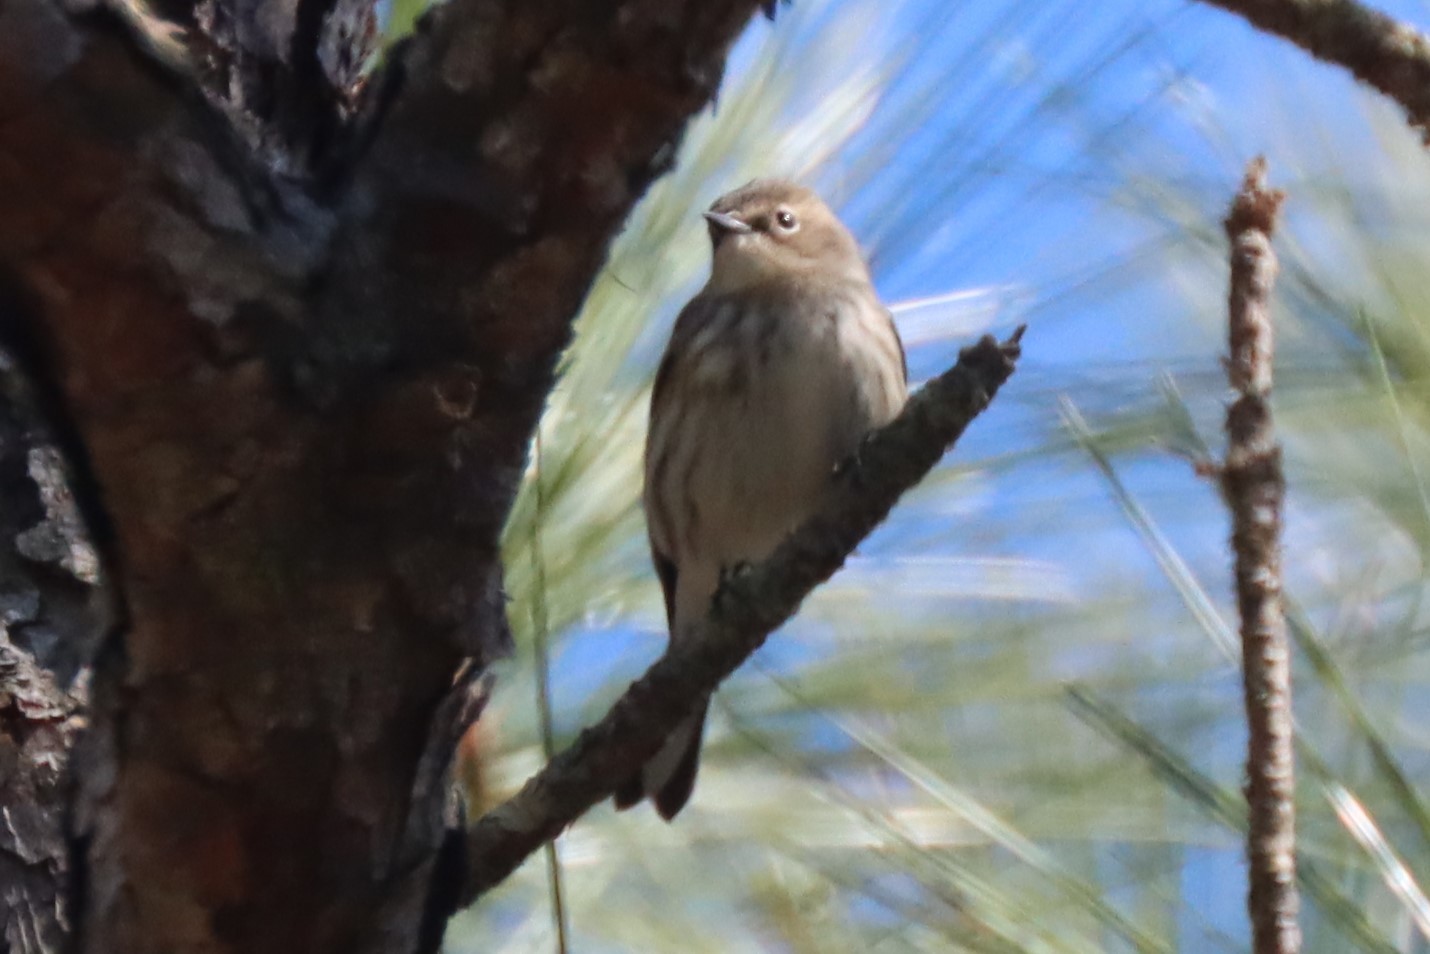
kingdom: Animalia
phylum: Chordata
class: Aves
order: Passeriformes
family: Parulidae
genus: Setophaga
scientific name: Setophaga coronata
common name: Myrtle warbler
